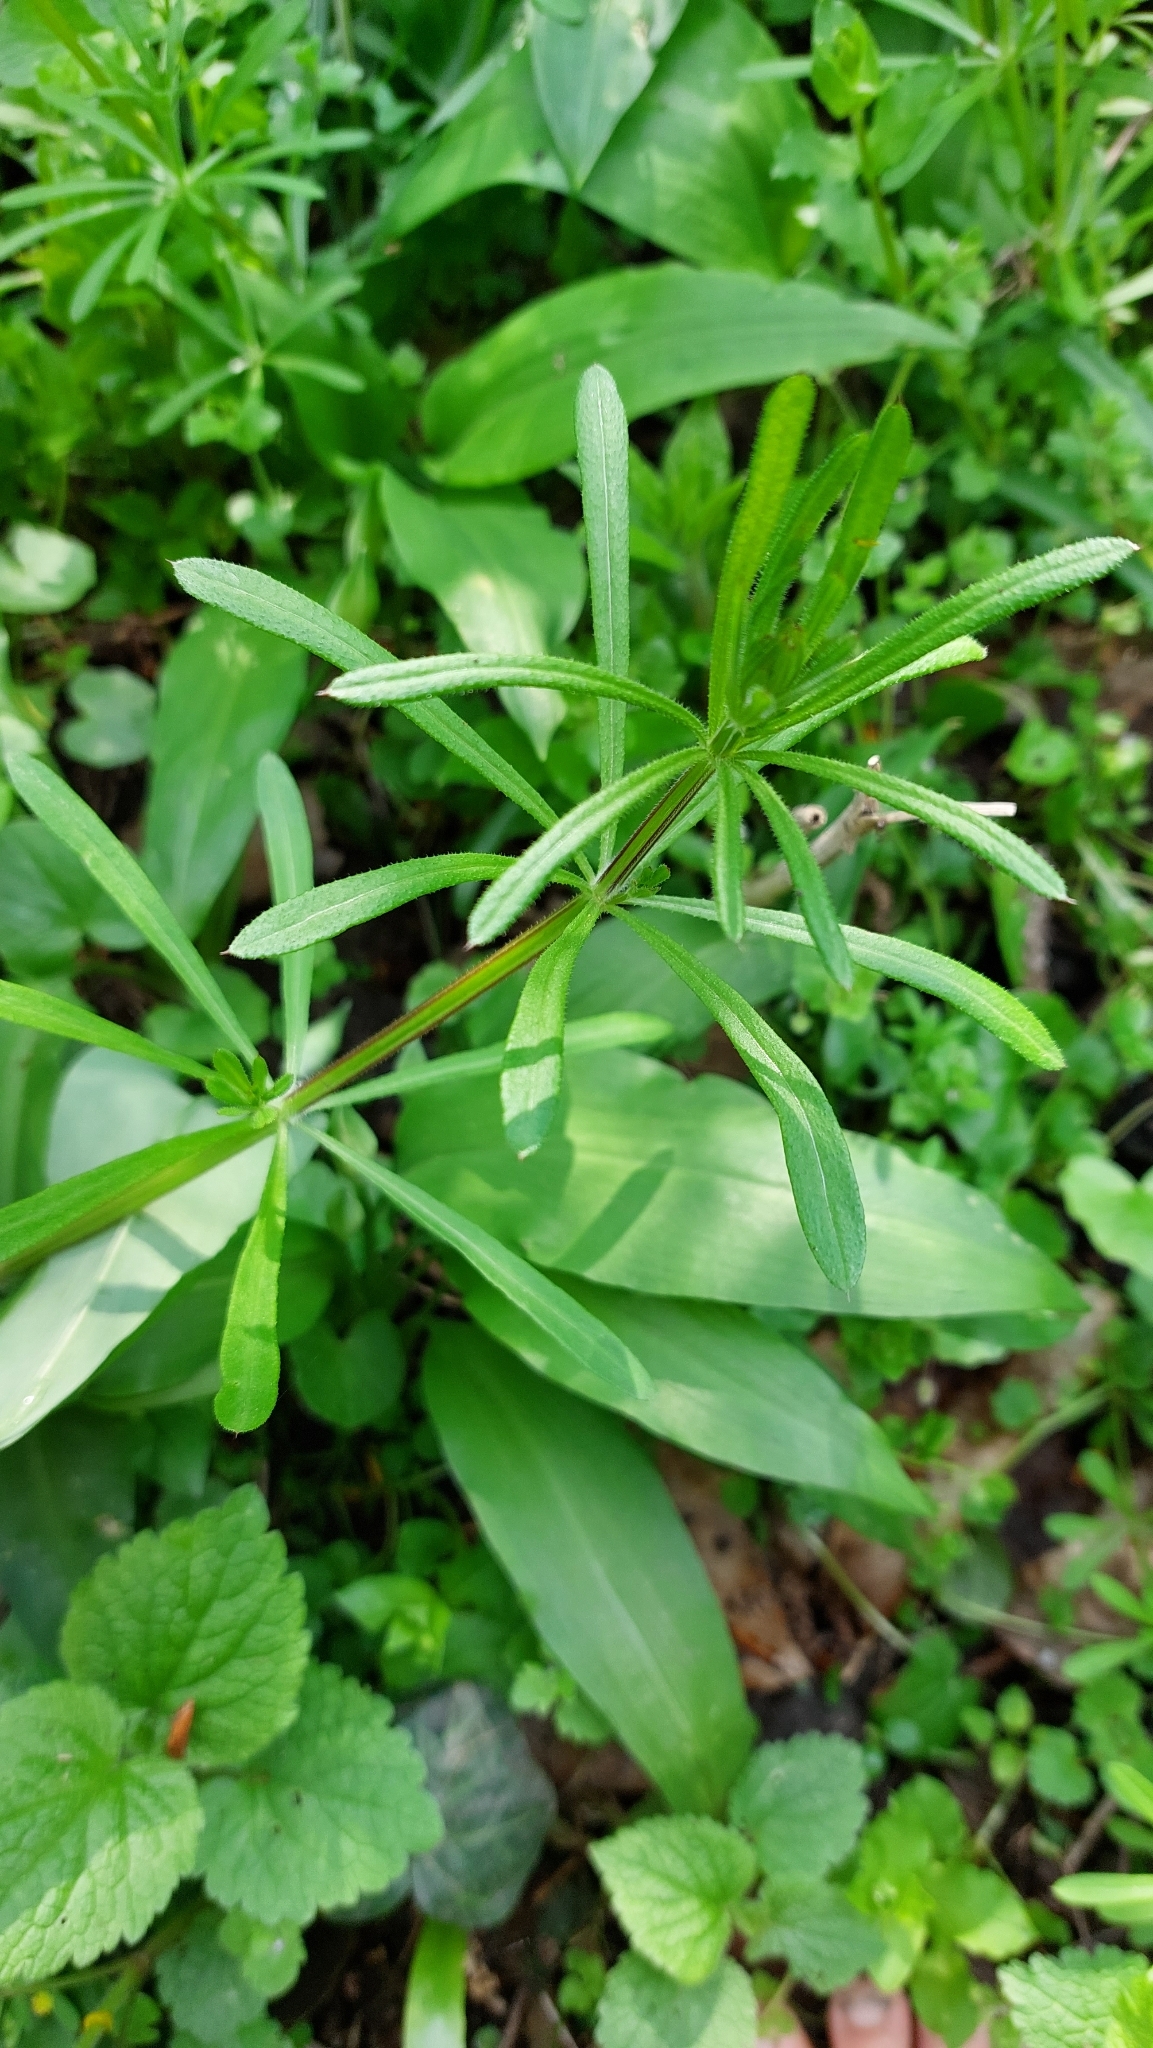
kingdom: Plantae
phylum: Tracheophyta
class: Magnoliopsida
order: Gentianales
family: Rubiaceae
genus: Galium
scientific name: Galium aparine
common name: Cleavers
